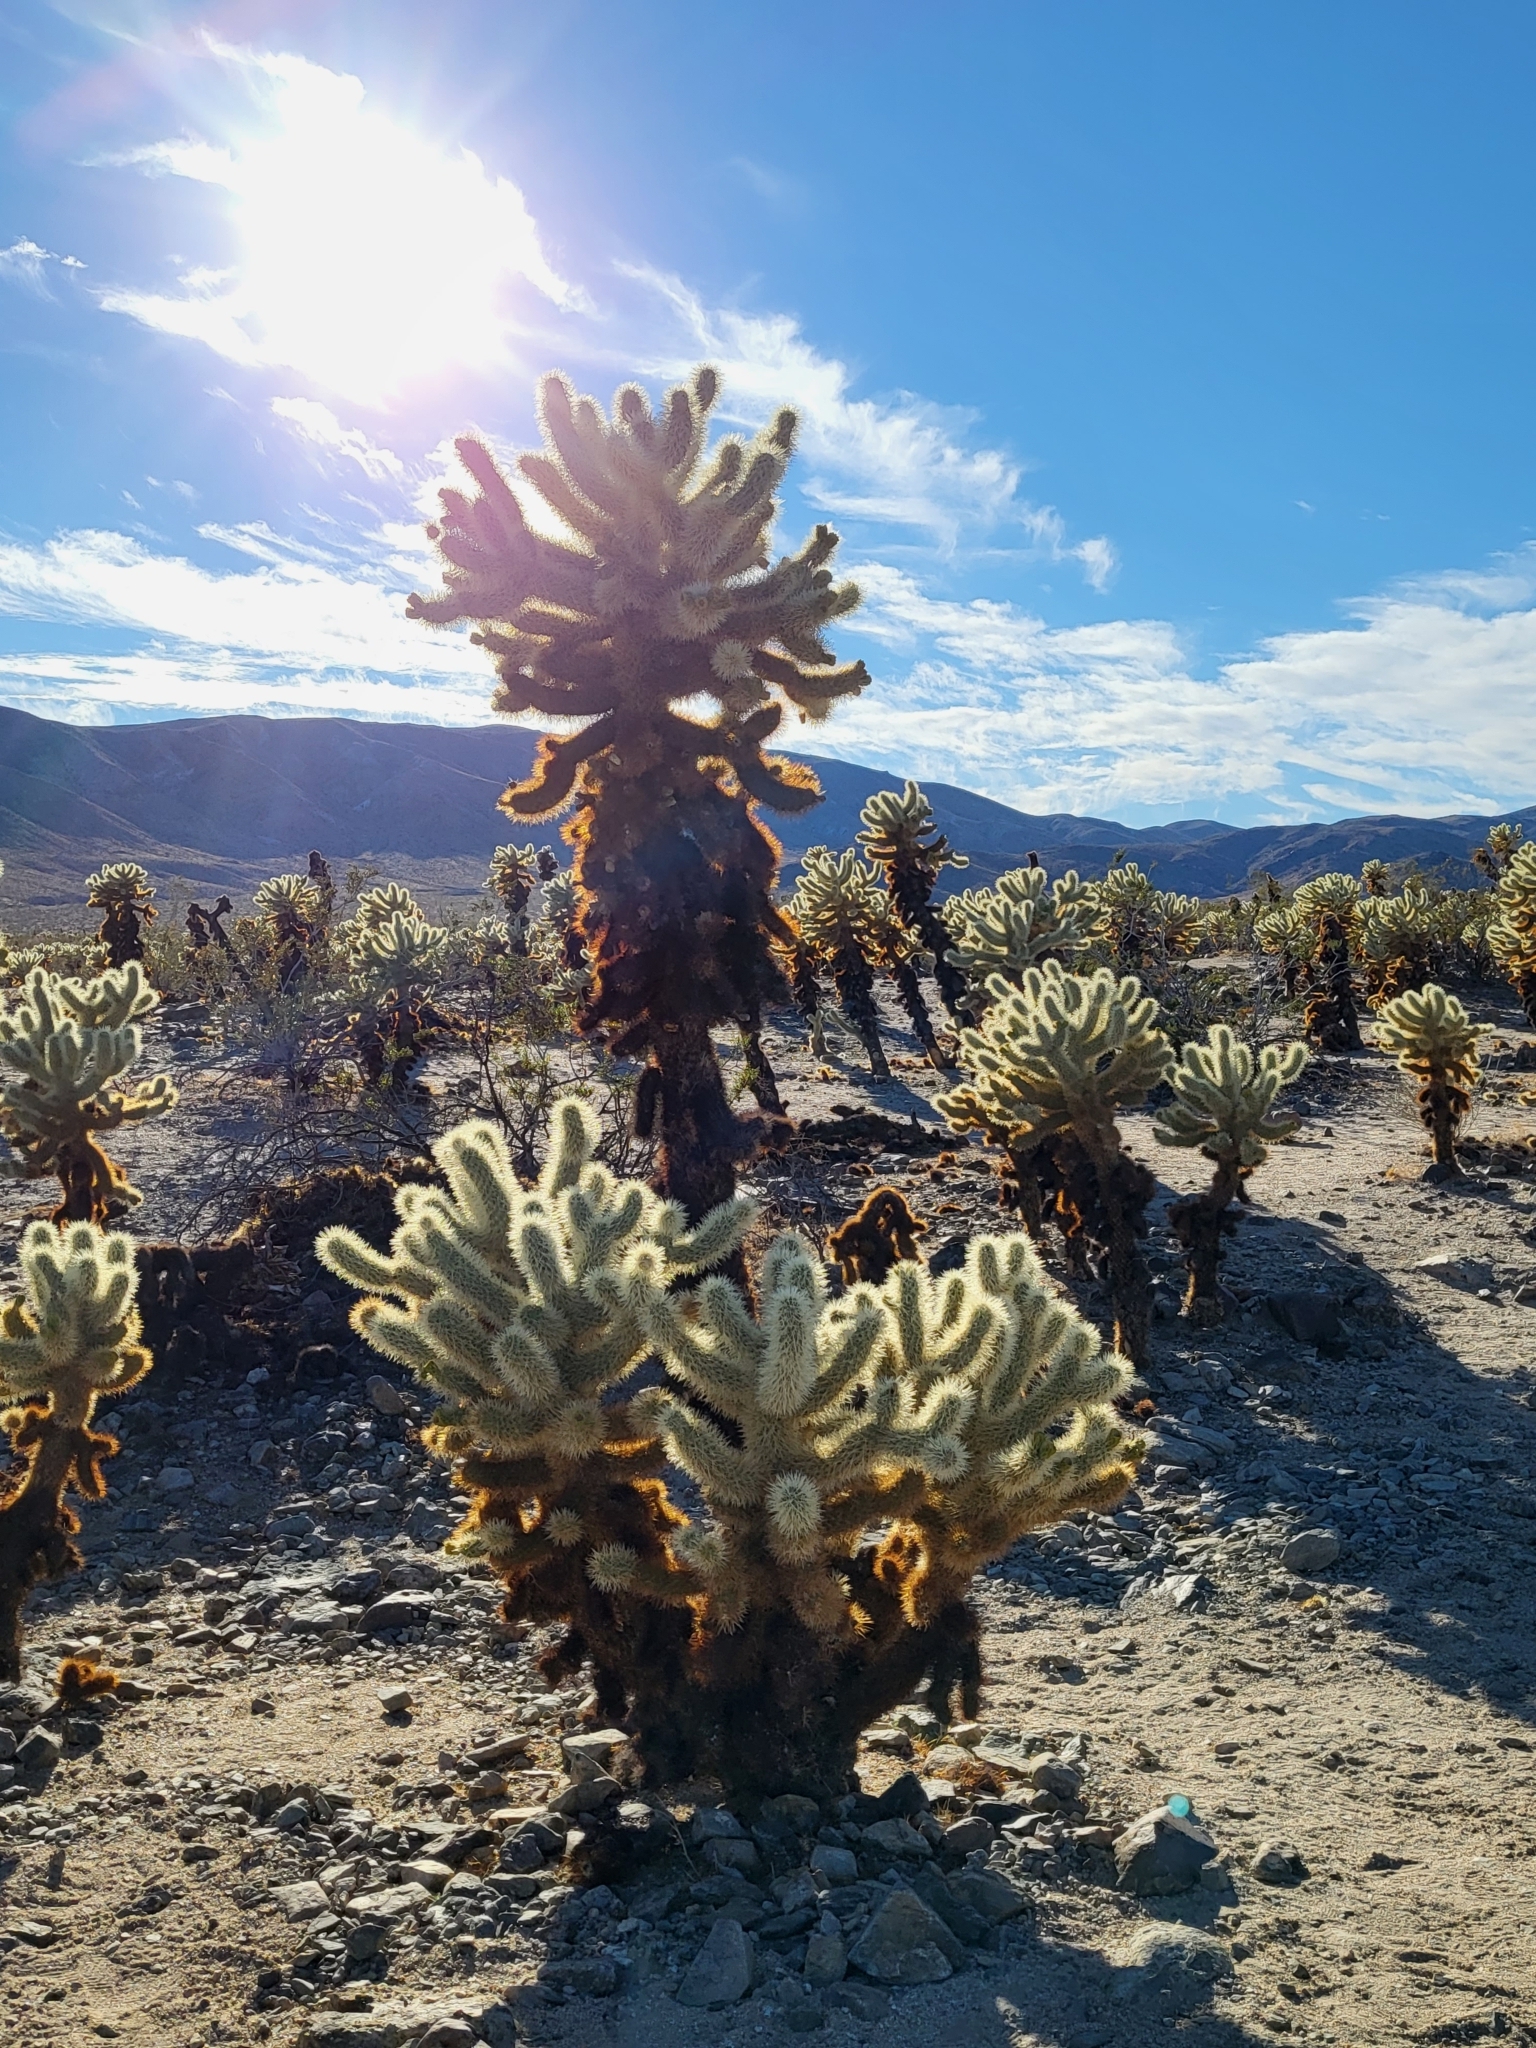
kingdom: Plantae
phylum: Tracheophyta
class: Magnoliopsida
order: Caryophyllales
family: Cactaceae
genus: Cylindropuntia
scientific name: Cylindropuntia fosbergii
